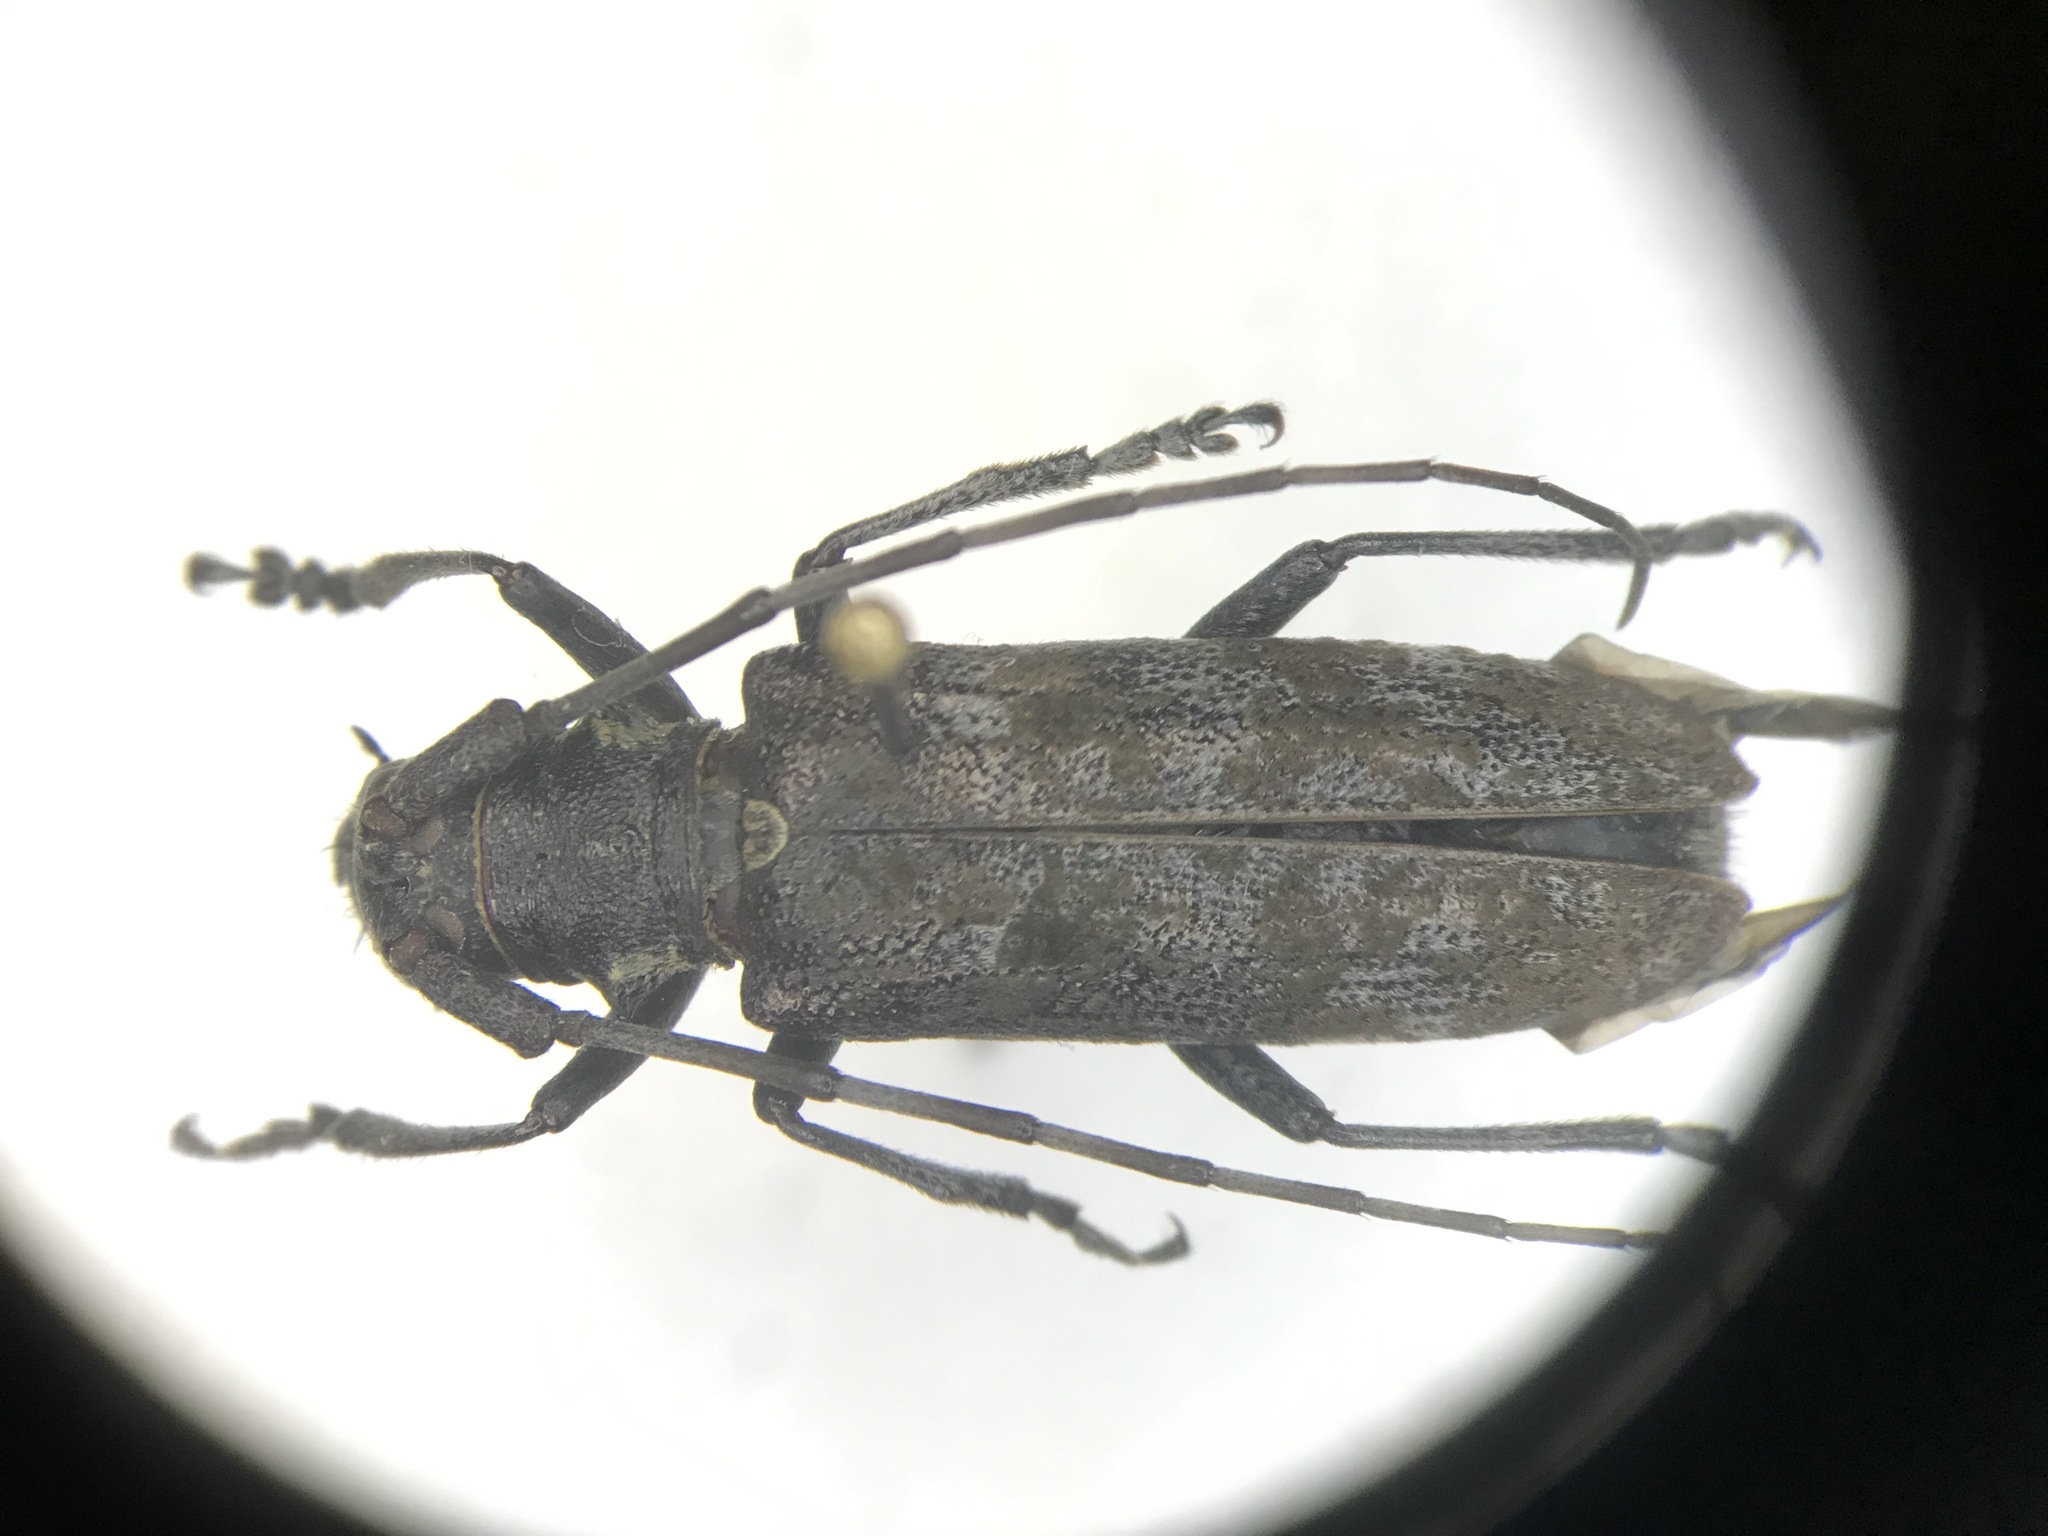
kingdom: Animalia
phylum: Arthropoda
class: Insecta
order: Coleoptera
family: Cerambycidae
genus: Monochamus
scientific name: Monochamus
